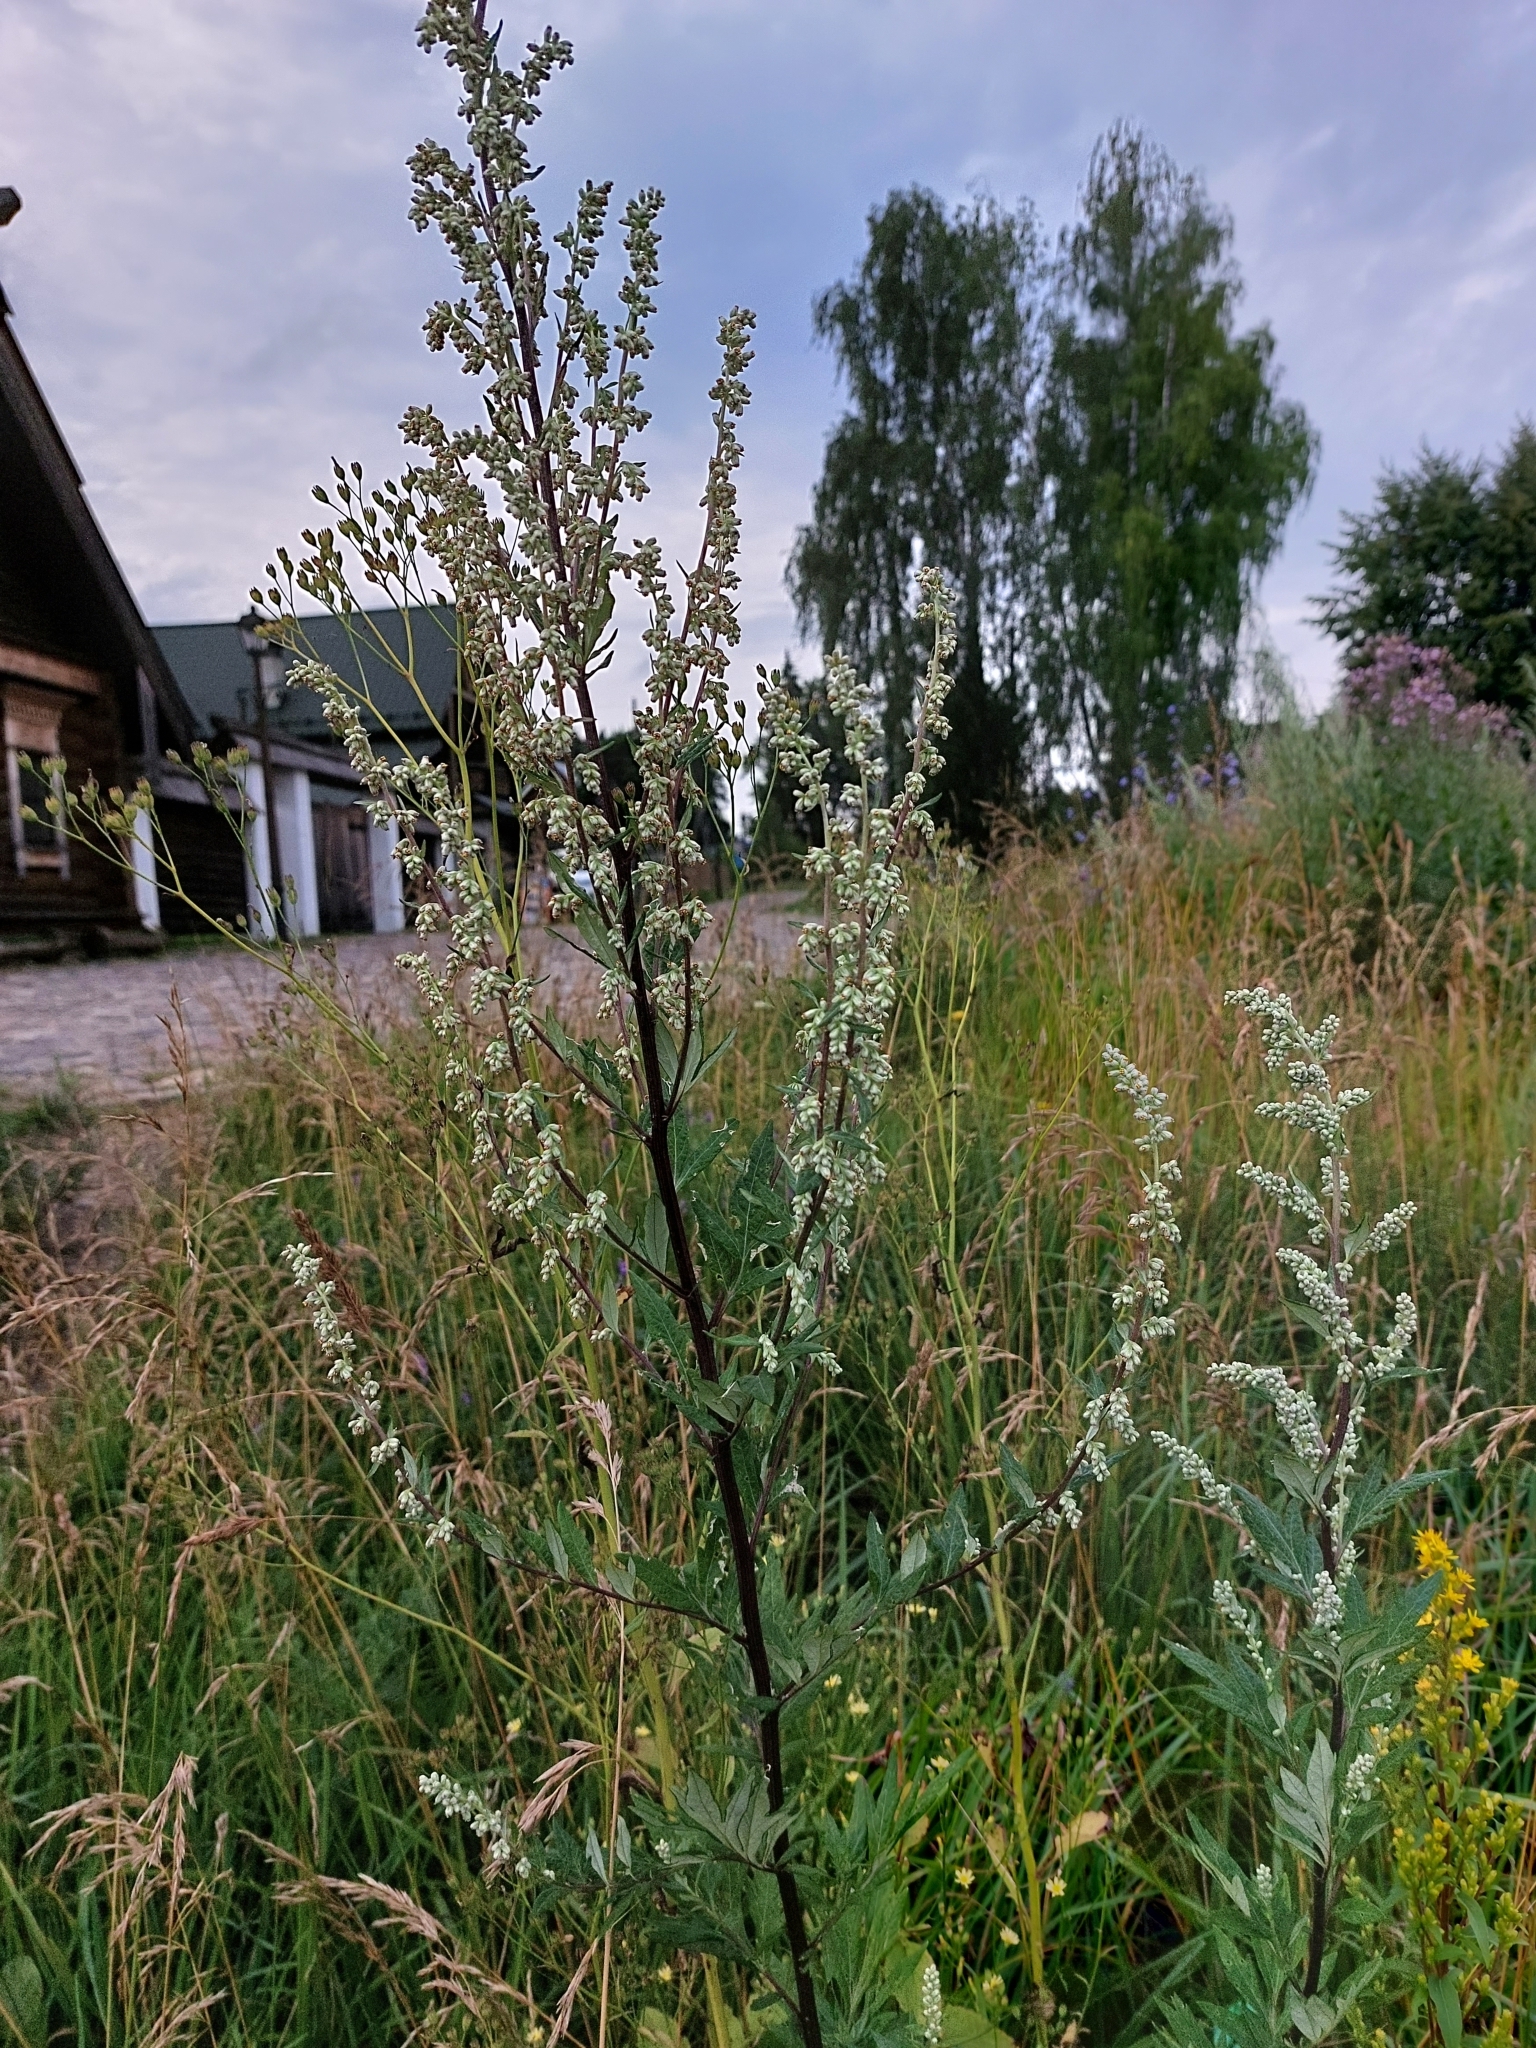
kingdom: Plantae
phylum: Tracheophyta
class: Magnoliopsida
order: Asterales
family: Asteraceae
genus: Artemisia
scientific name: Artemisia vulgaris
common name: Mugwort
